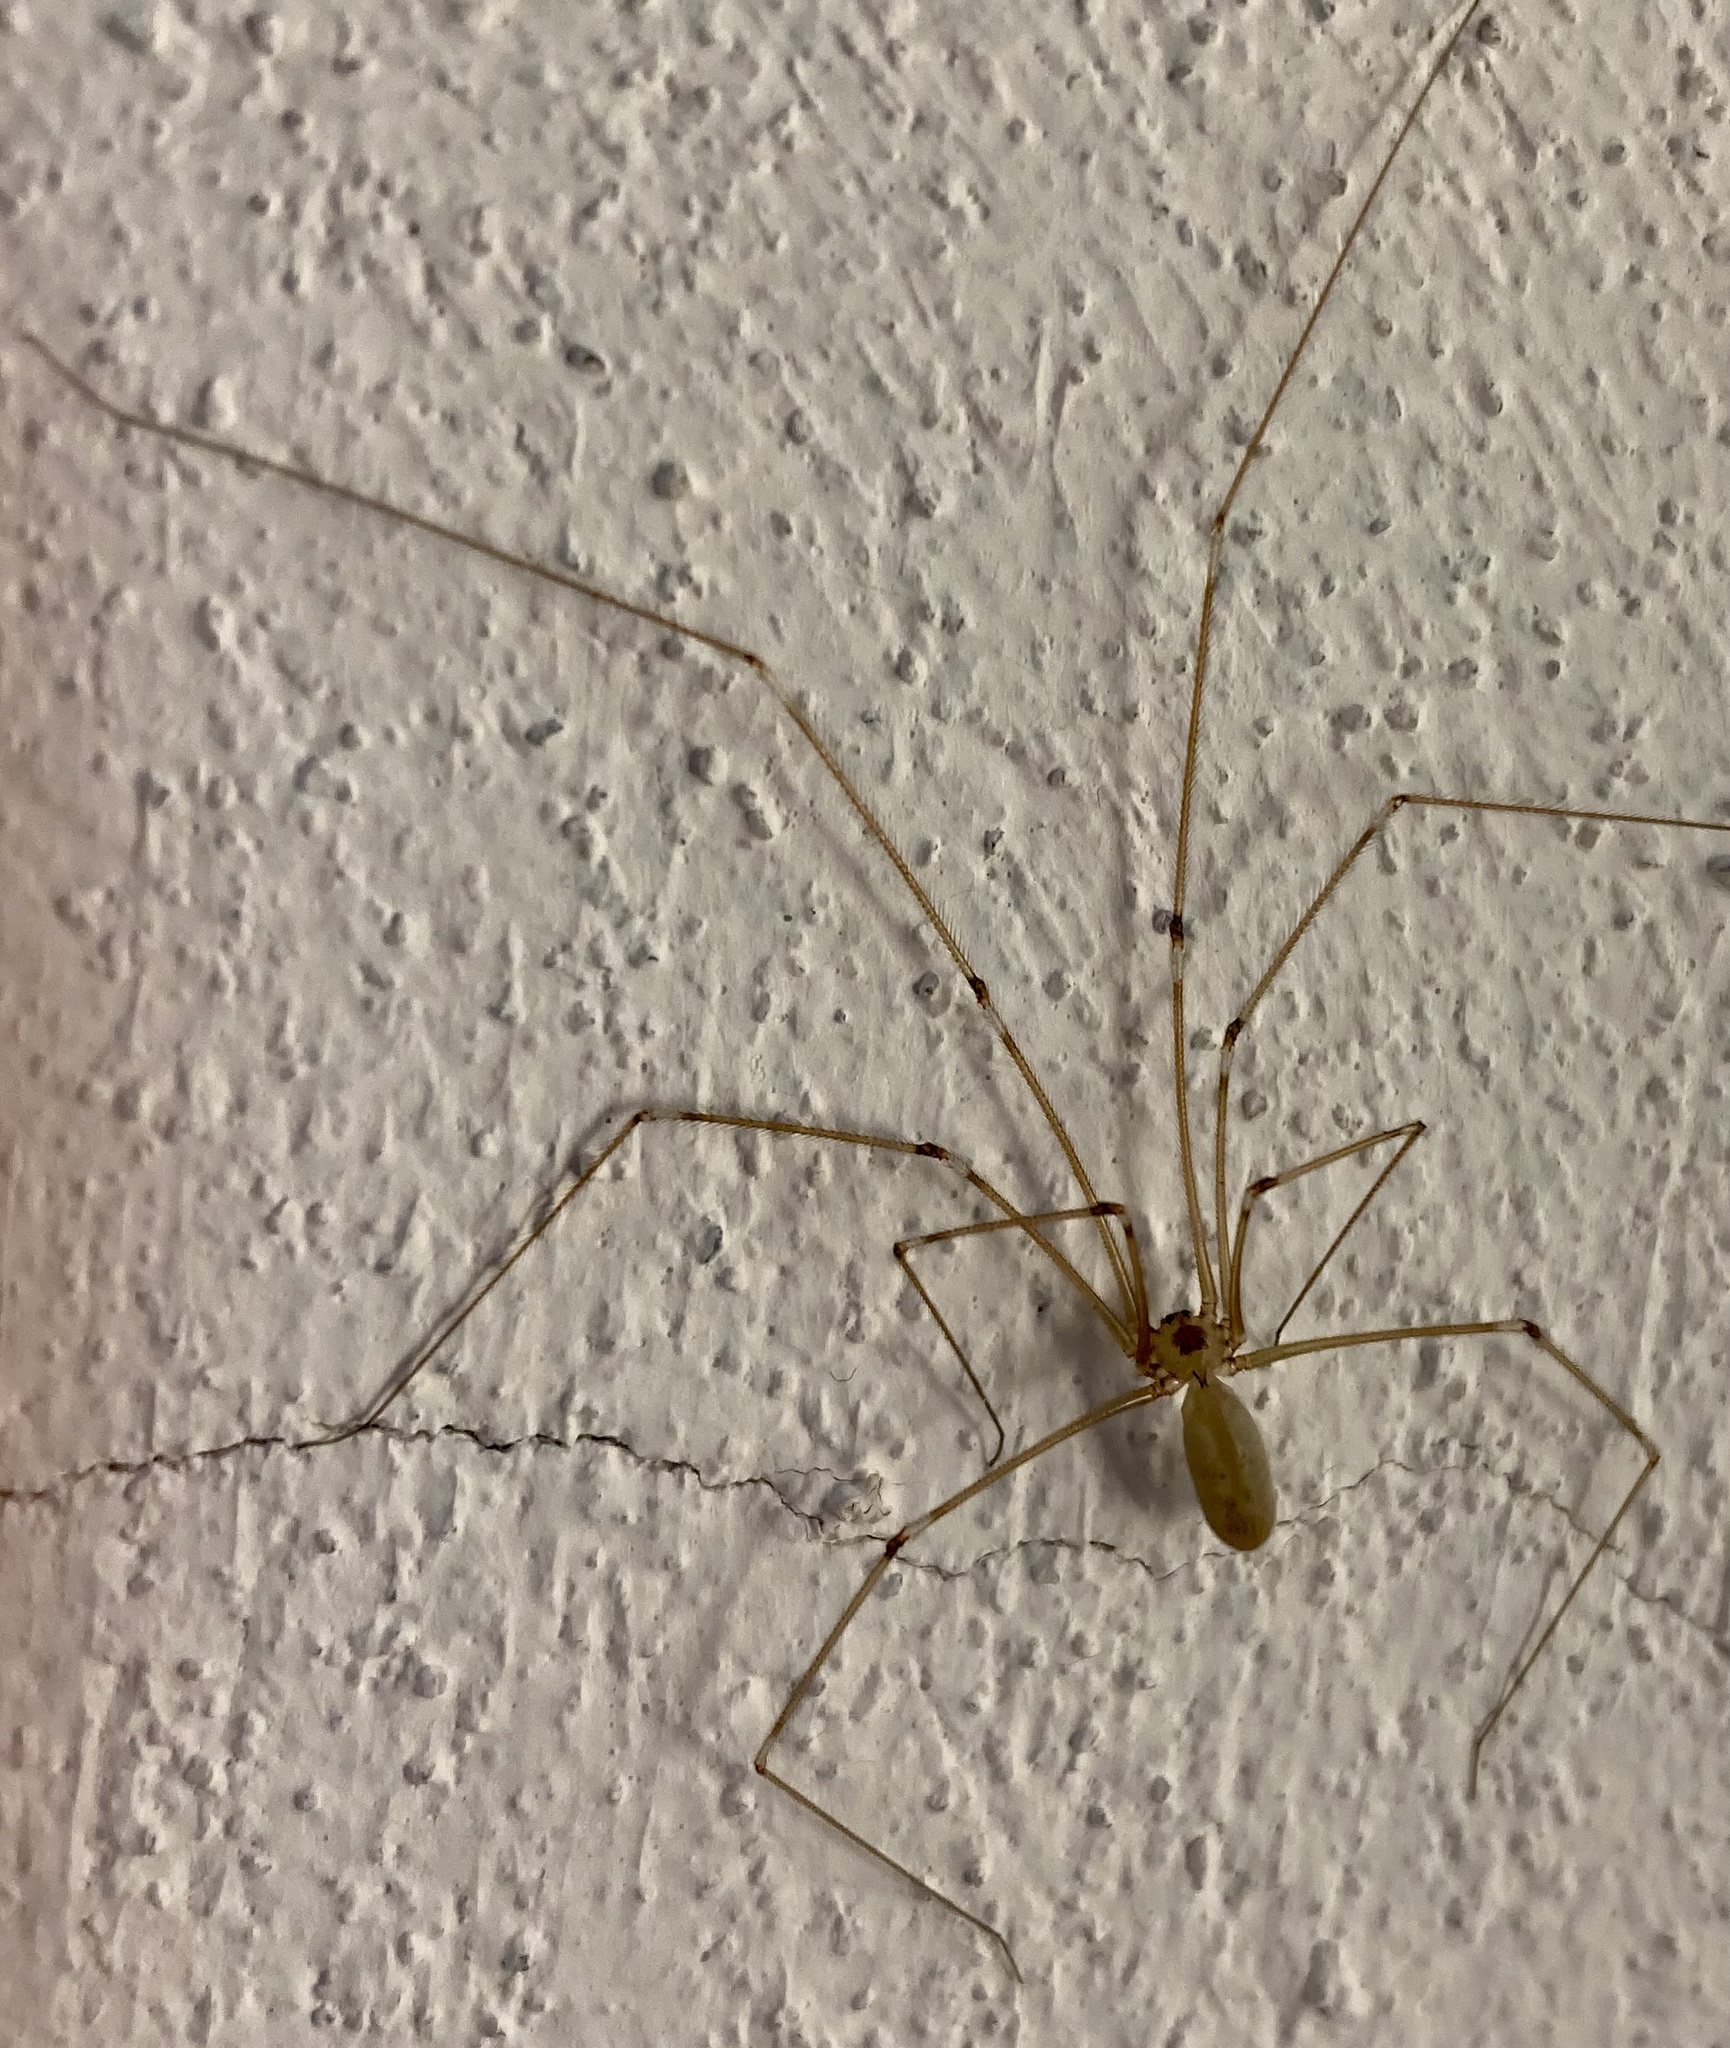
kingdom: Animalia
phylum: Arthropoda
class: Arachnida
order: Araneae
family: Pholcidae
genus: Pholcus
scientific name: Pholcus phalangioides
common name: Longbodied cellar spider
